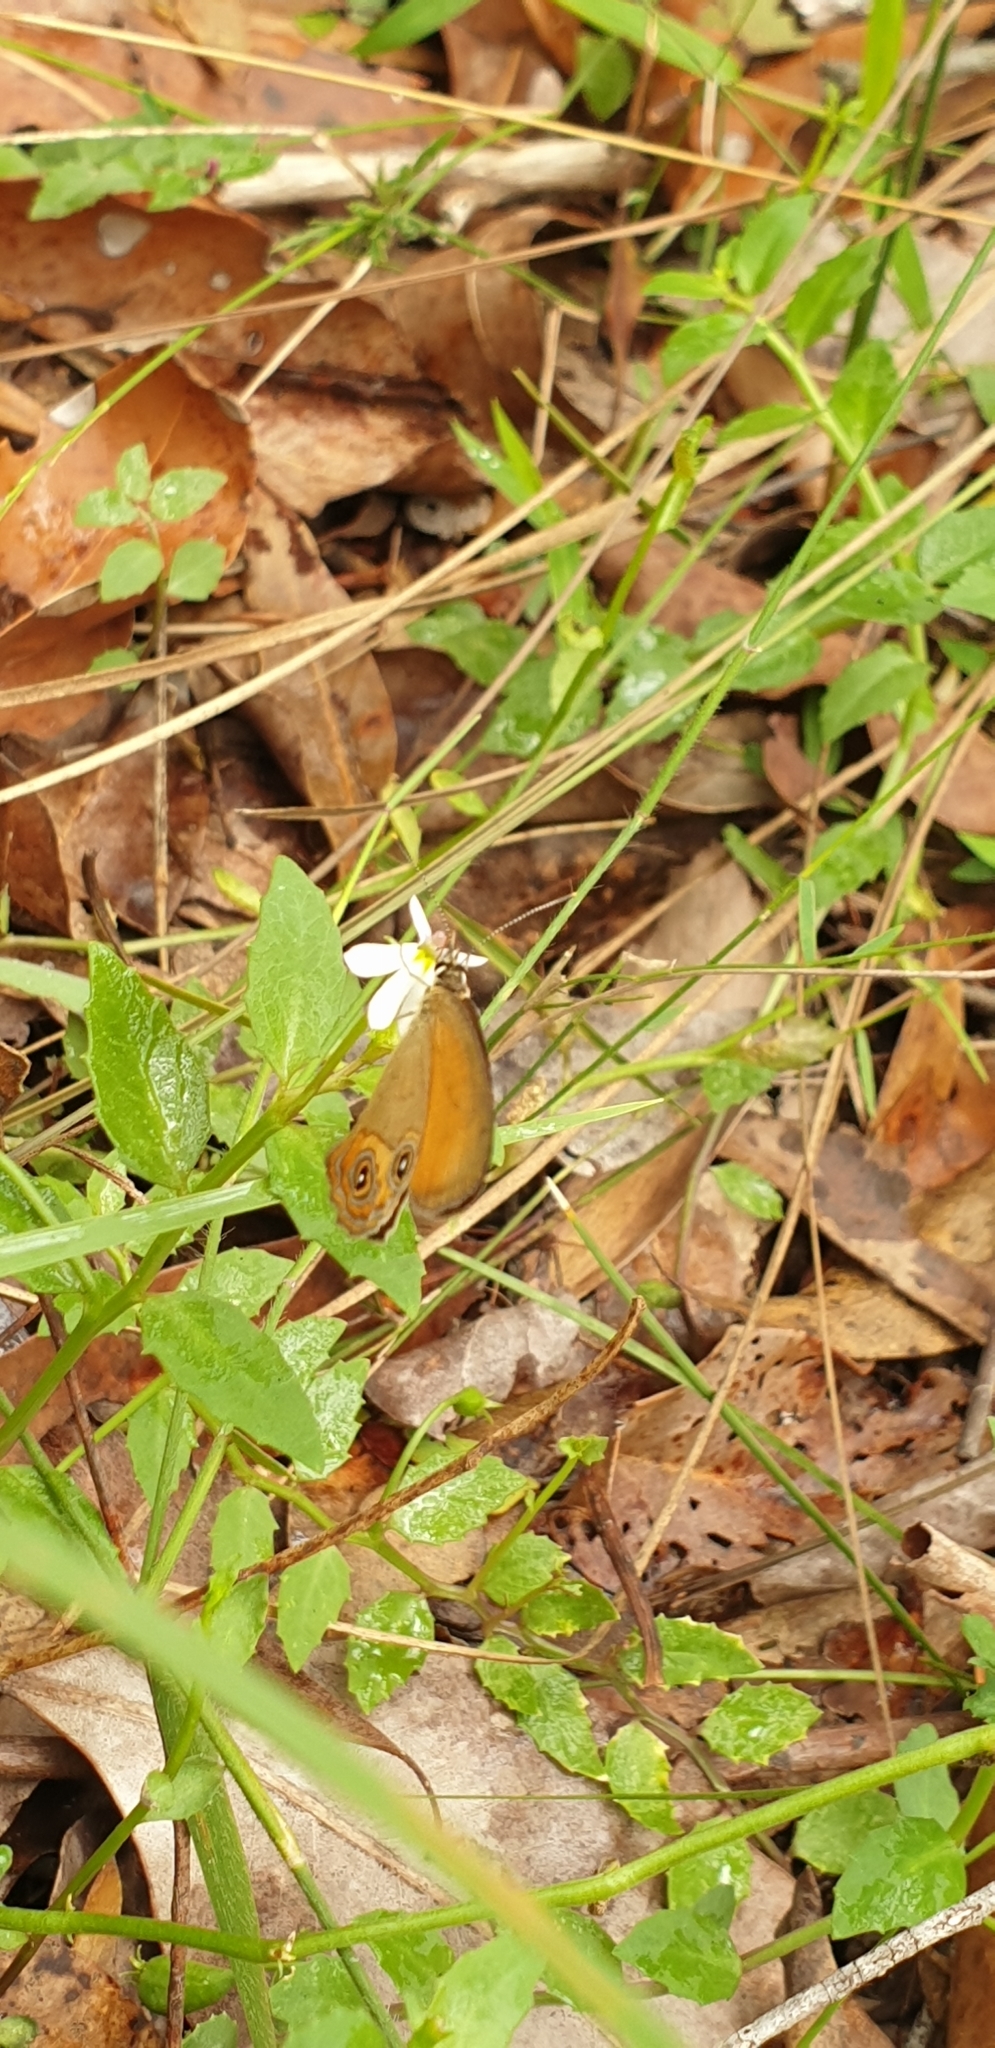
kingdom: Animalia
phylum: Arthropoda
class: Insecta
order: Lepidoptera
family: Nymphalidae
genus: Hypocysta
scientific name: Hypocysta adiante
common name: Orange ringlet
